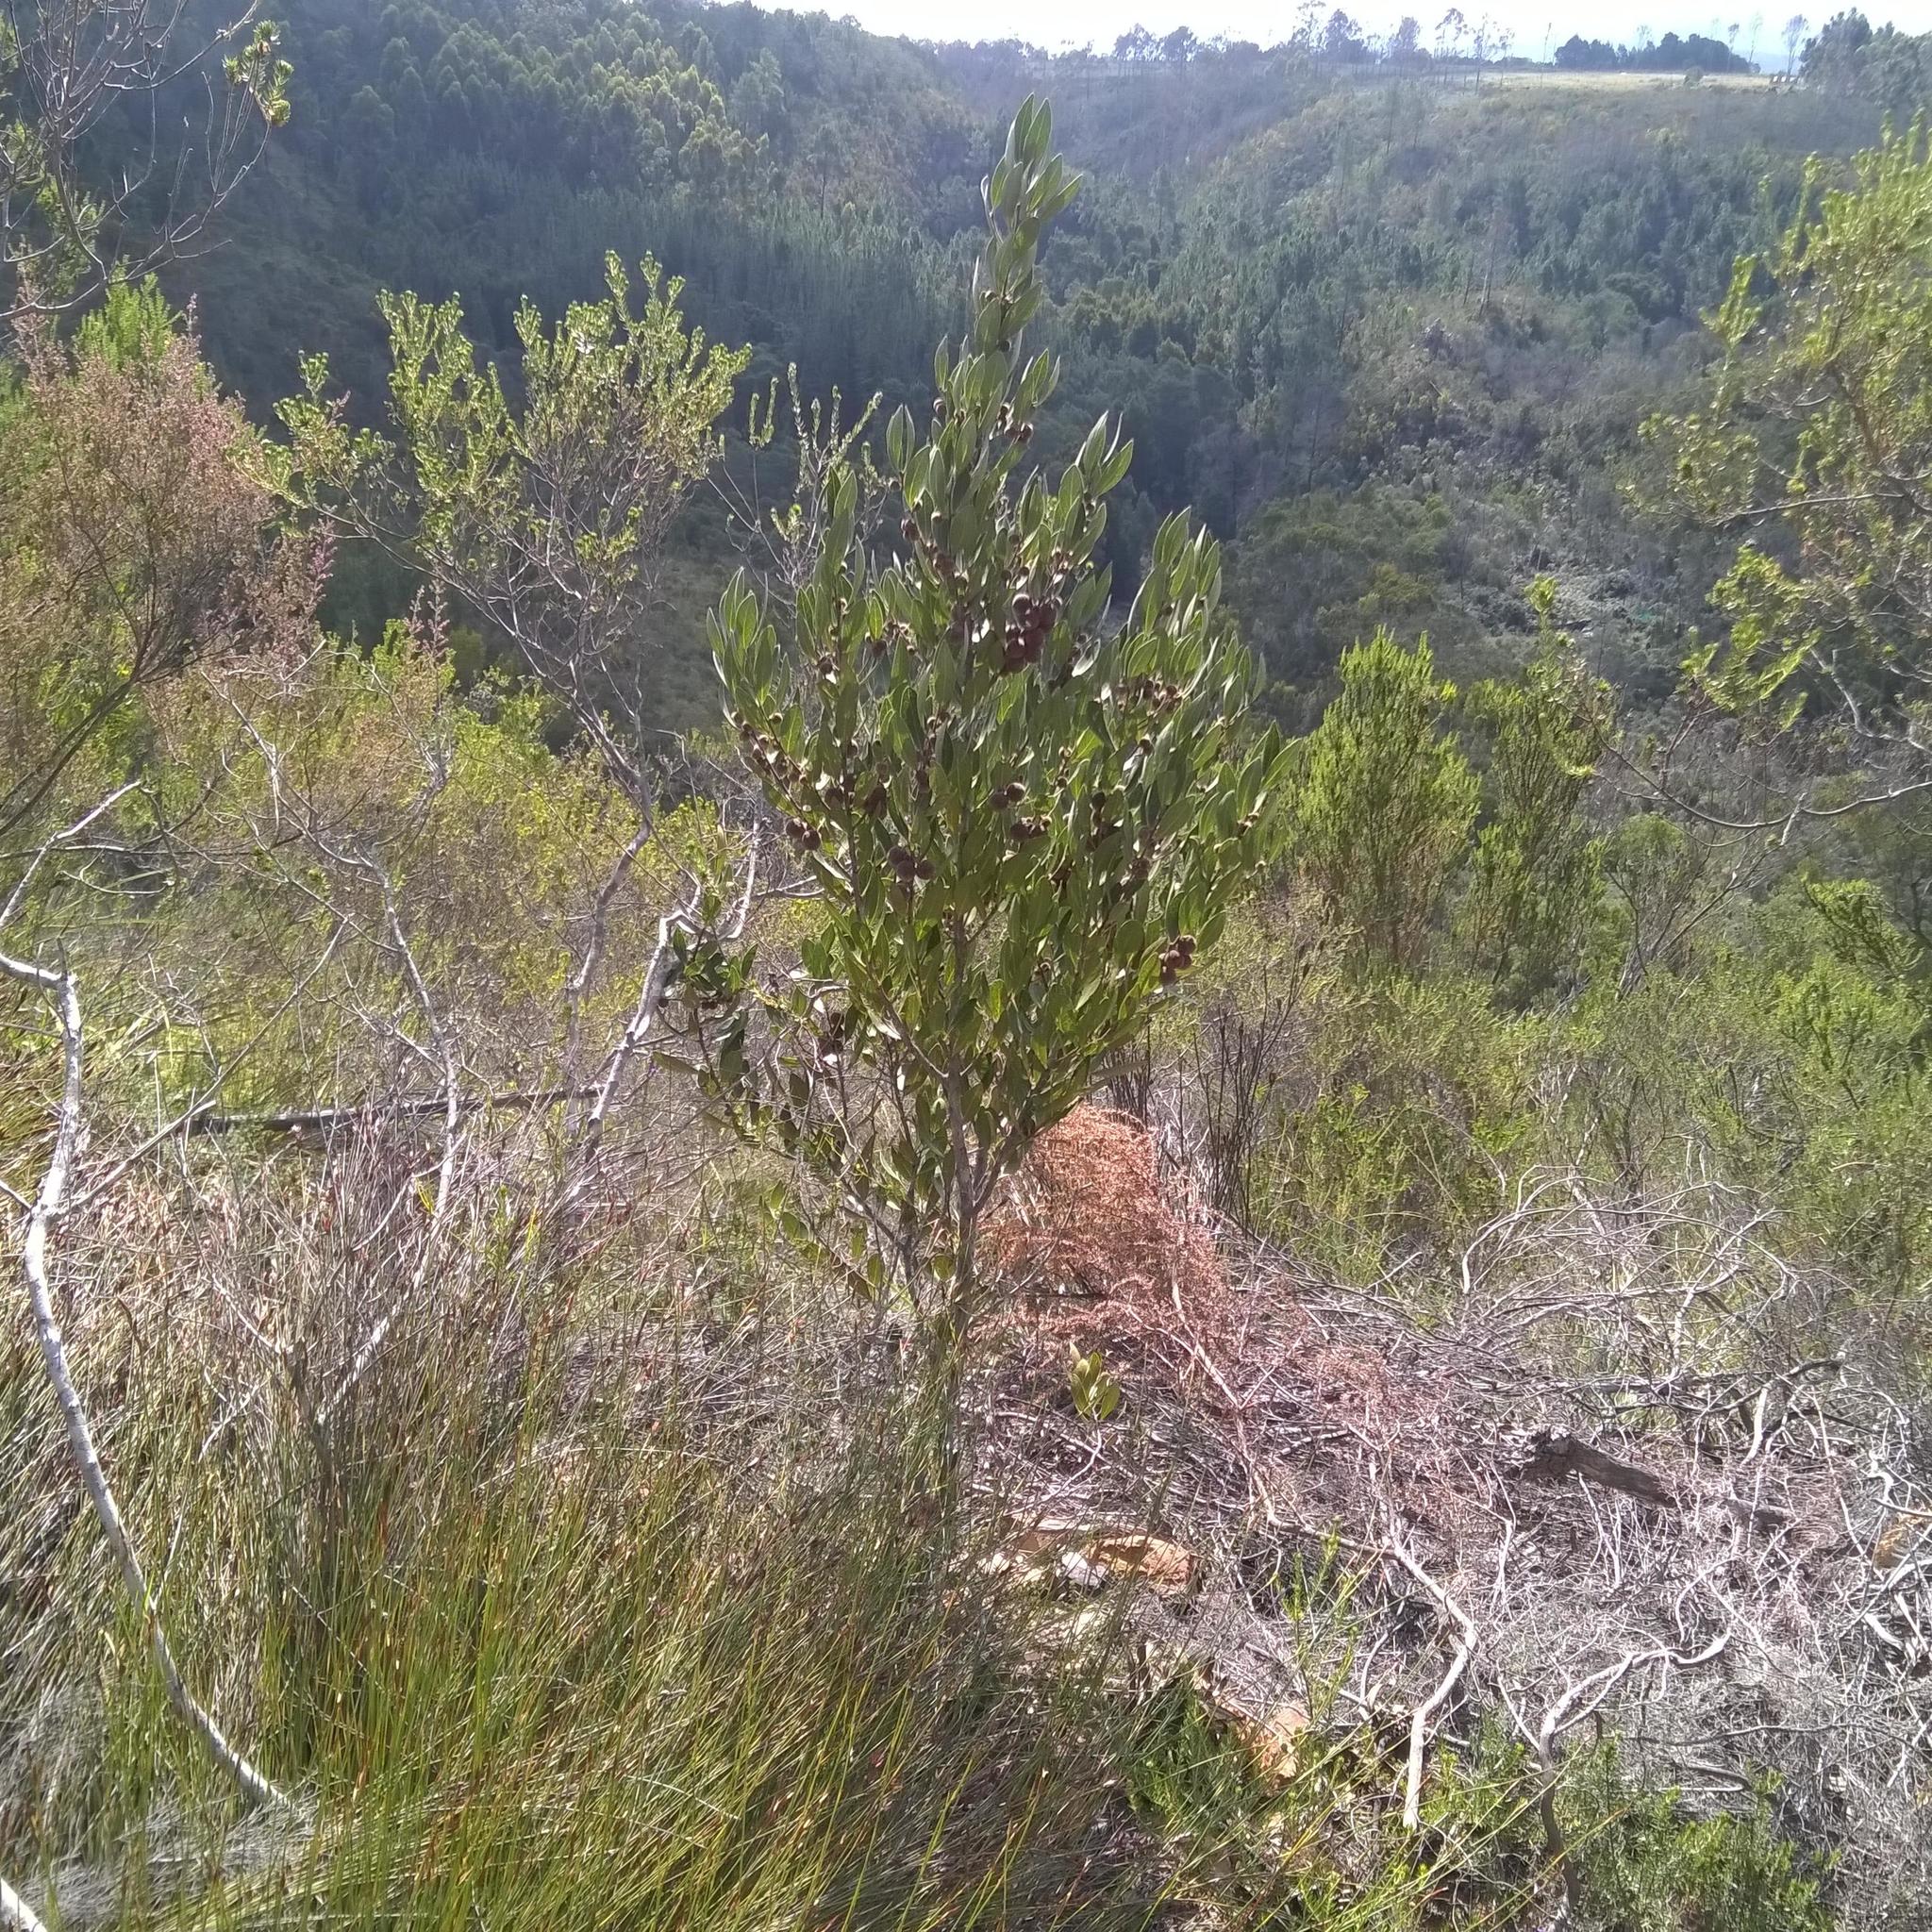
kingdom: Plantae
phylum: Tracheophyta
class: Magnoliopsida
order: Ericales
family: Ebenaceae
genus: Euclea
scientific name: Euclea polyandra
